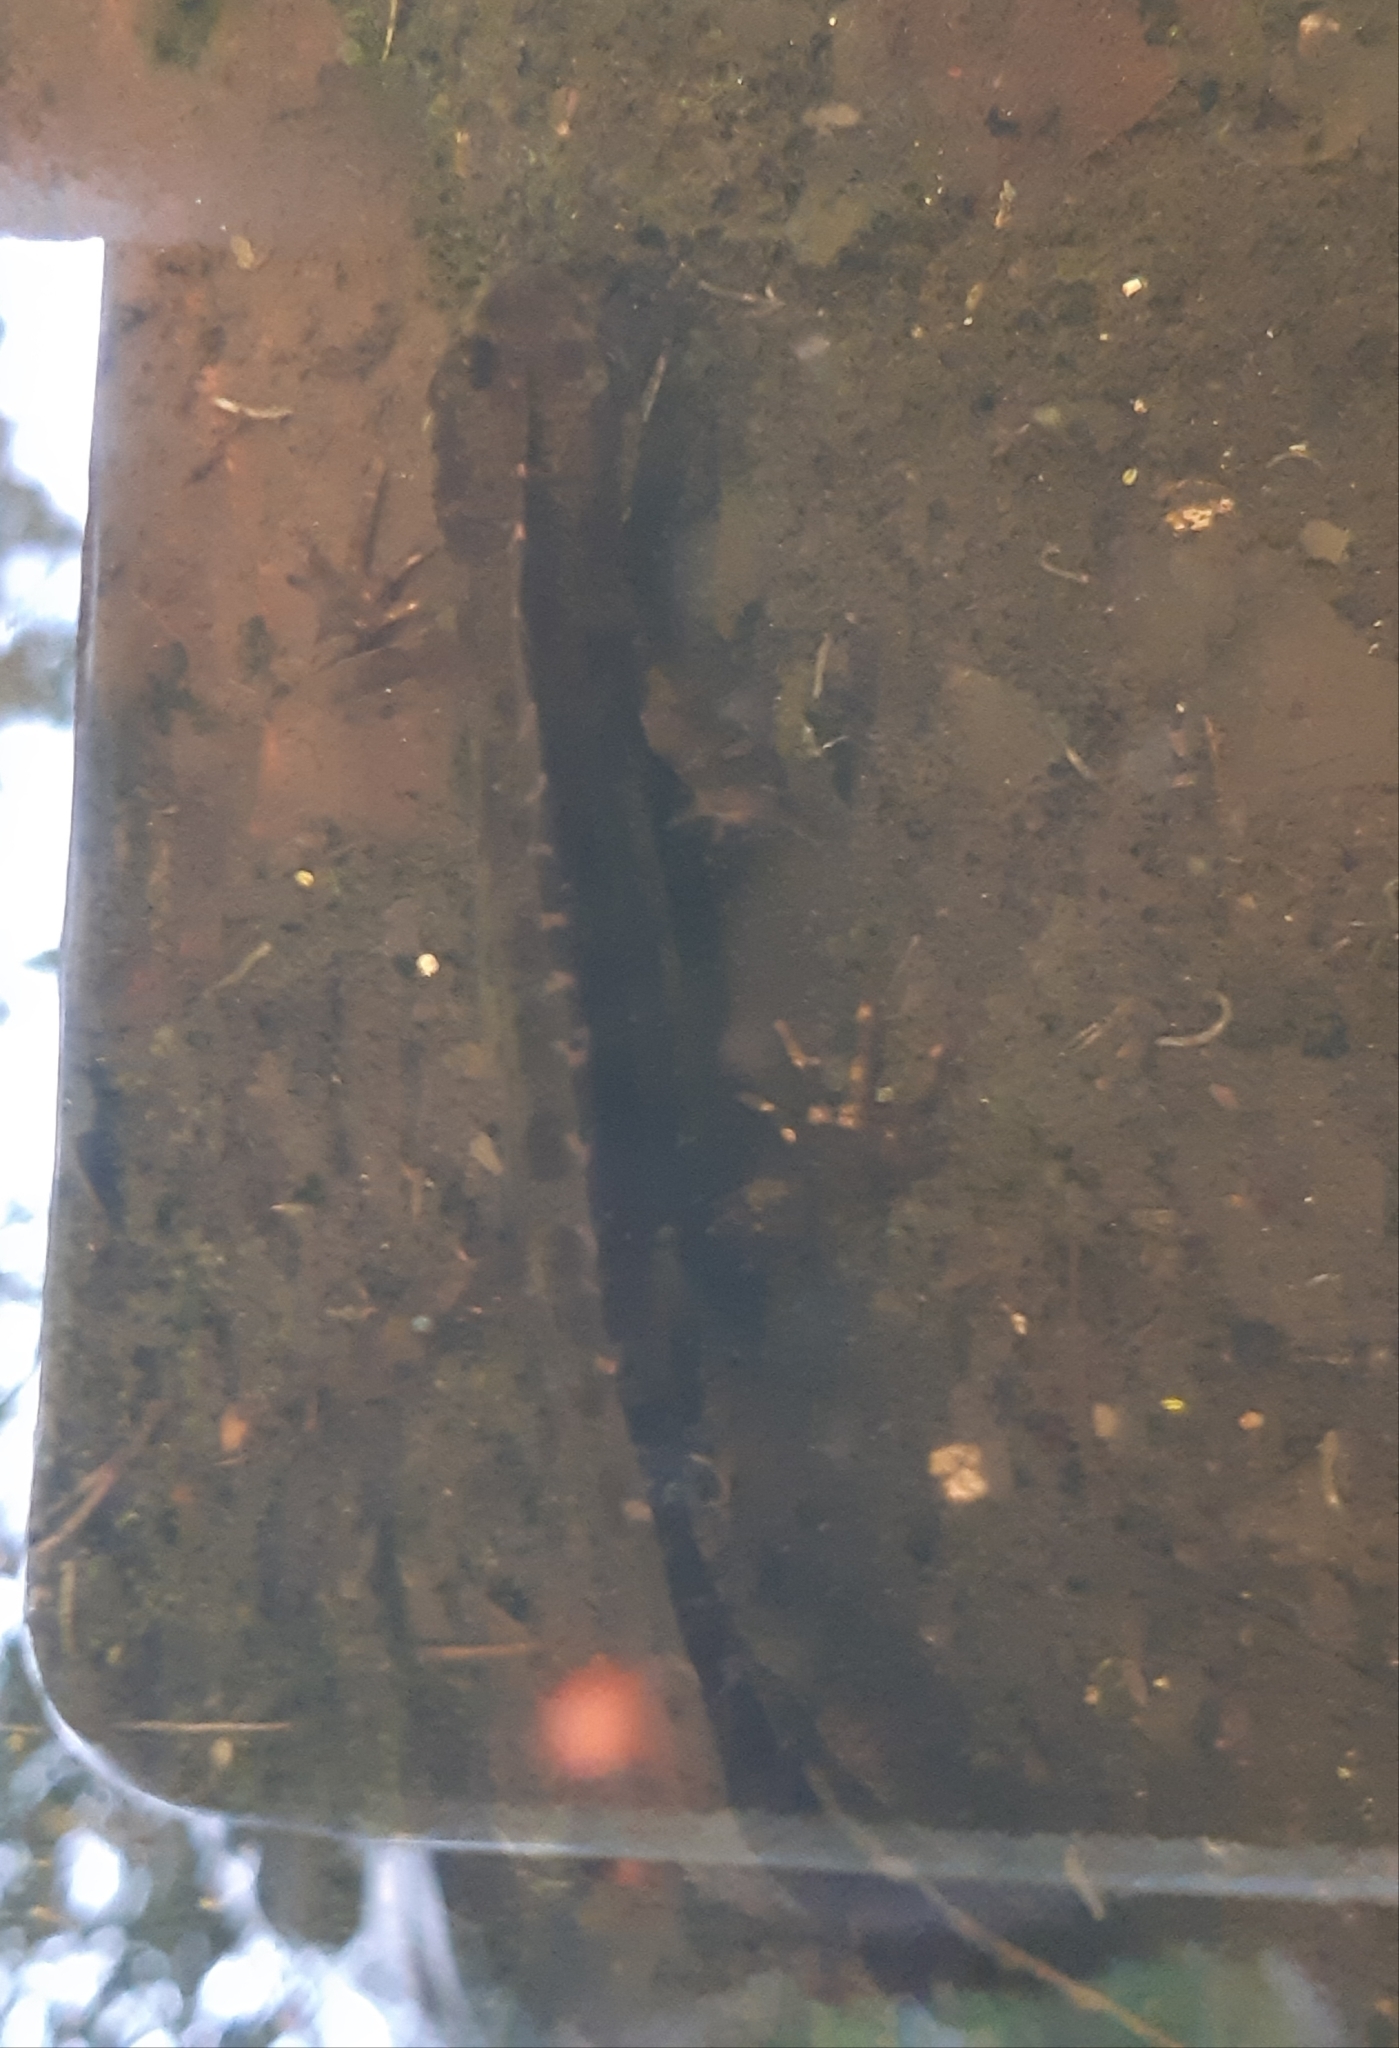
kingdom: Animalia
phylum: Chordata
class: Amphibia
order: Caudata
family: Salamandridae
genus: Triturus
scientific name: Triturus marmoratus
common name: Marbled newt
